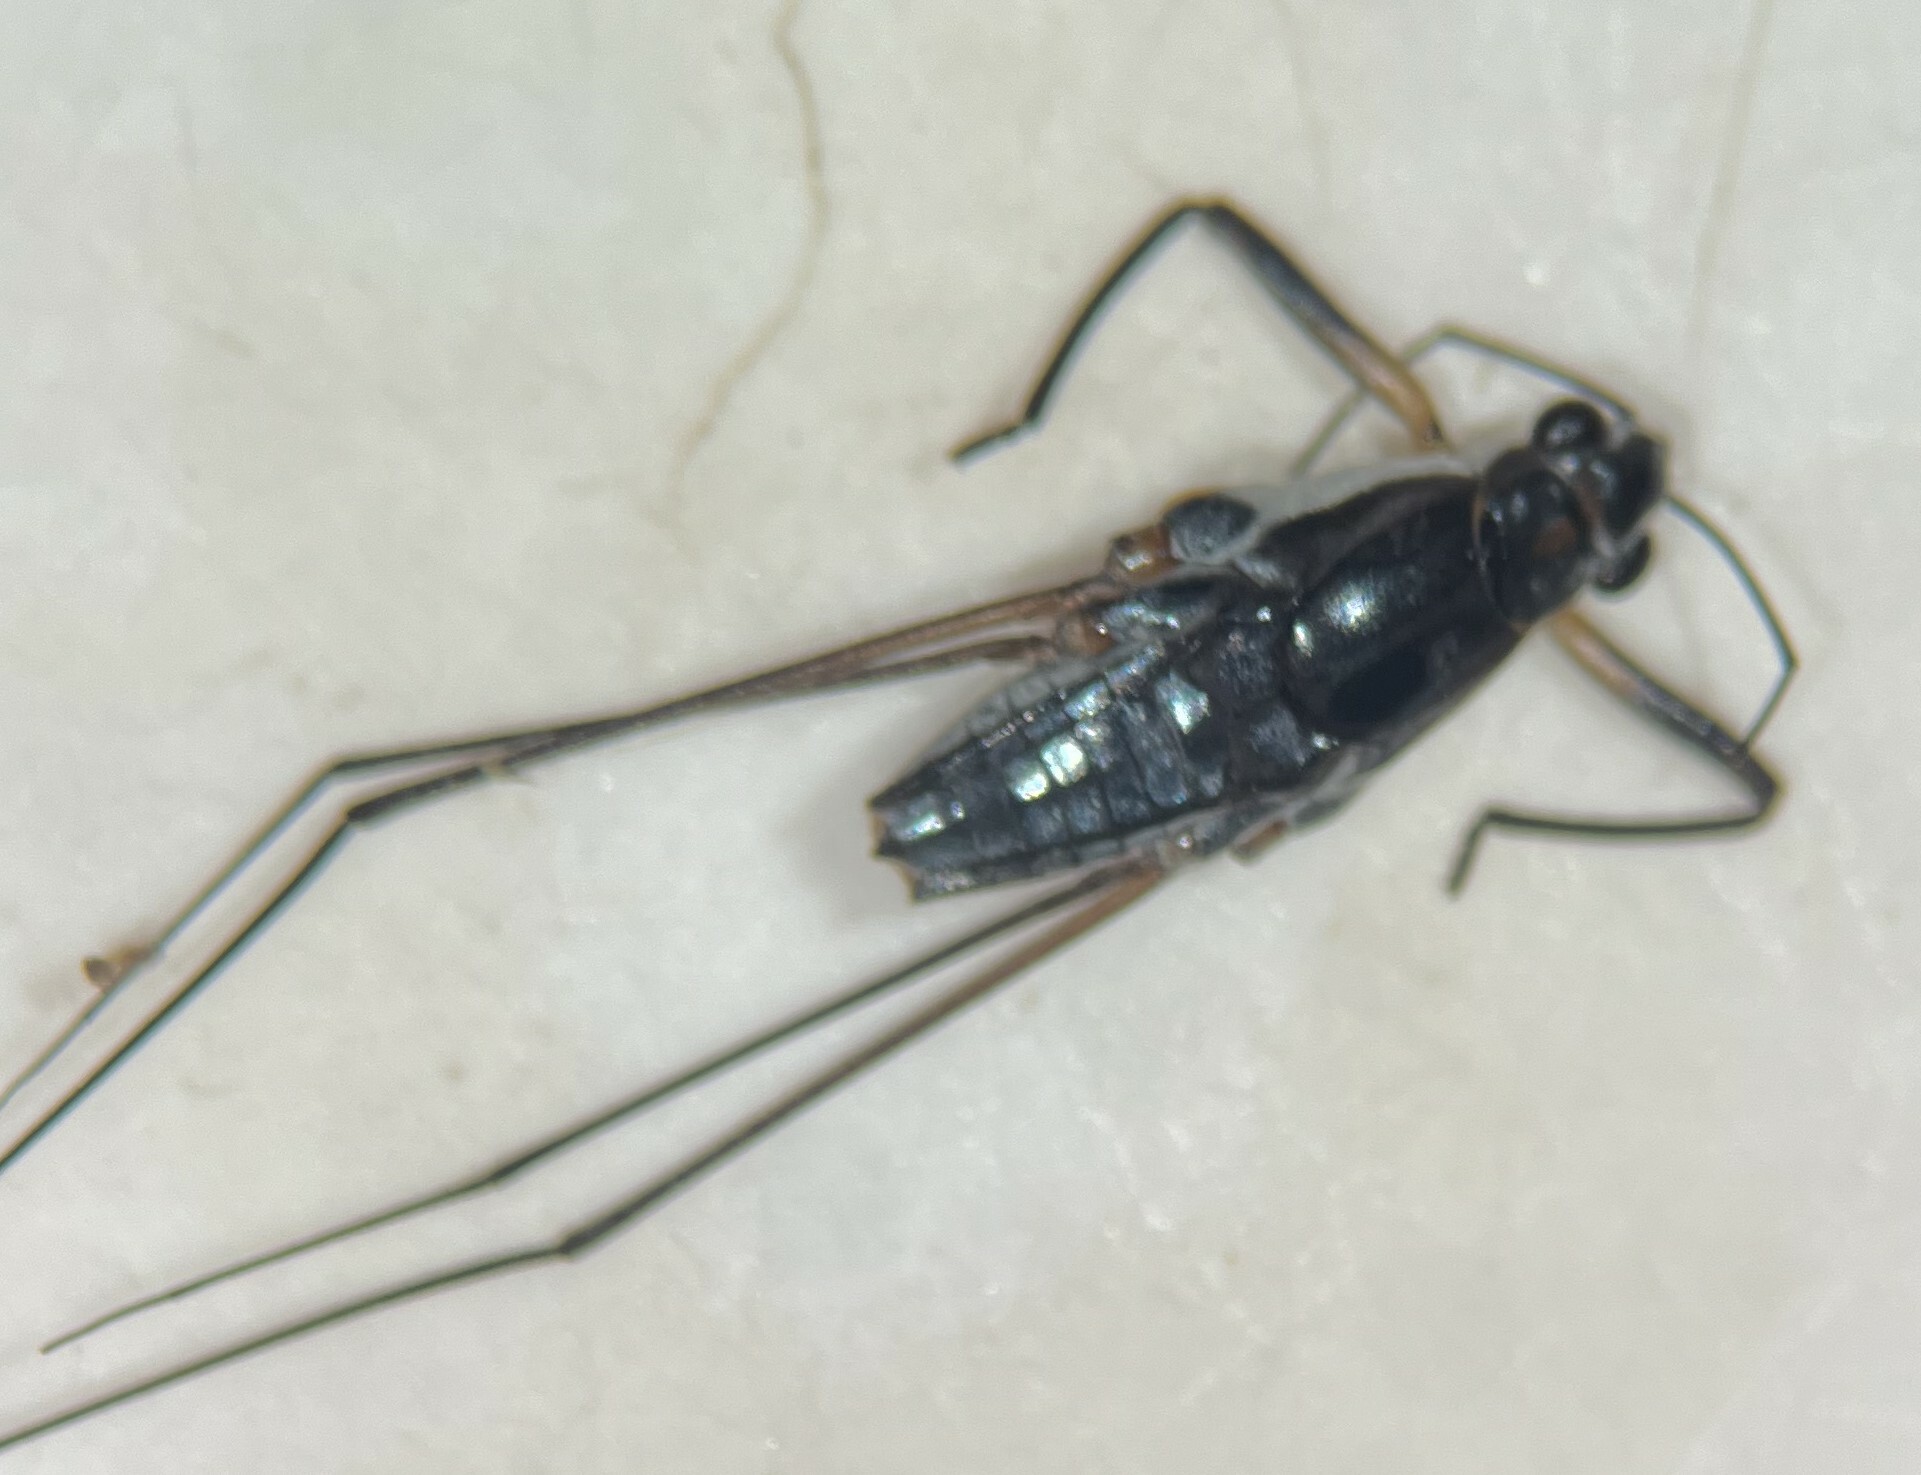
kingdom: Animalia
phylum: Arthropoda
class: Insecta
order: Hemiptera
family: Gerridae
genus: Neogerris
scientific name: Neogerris hesione
